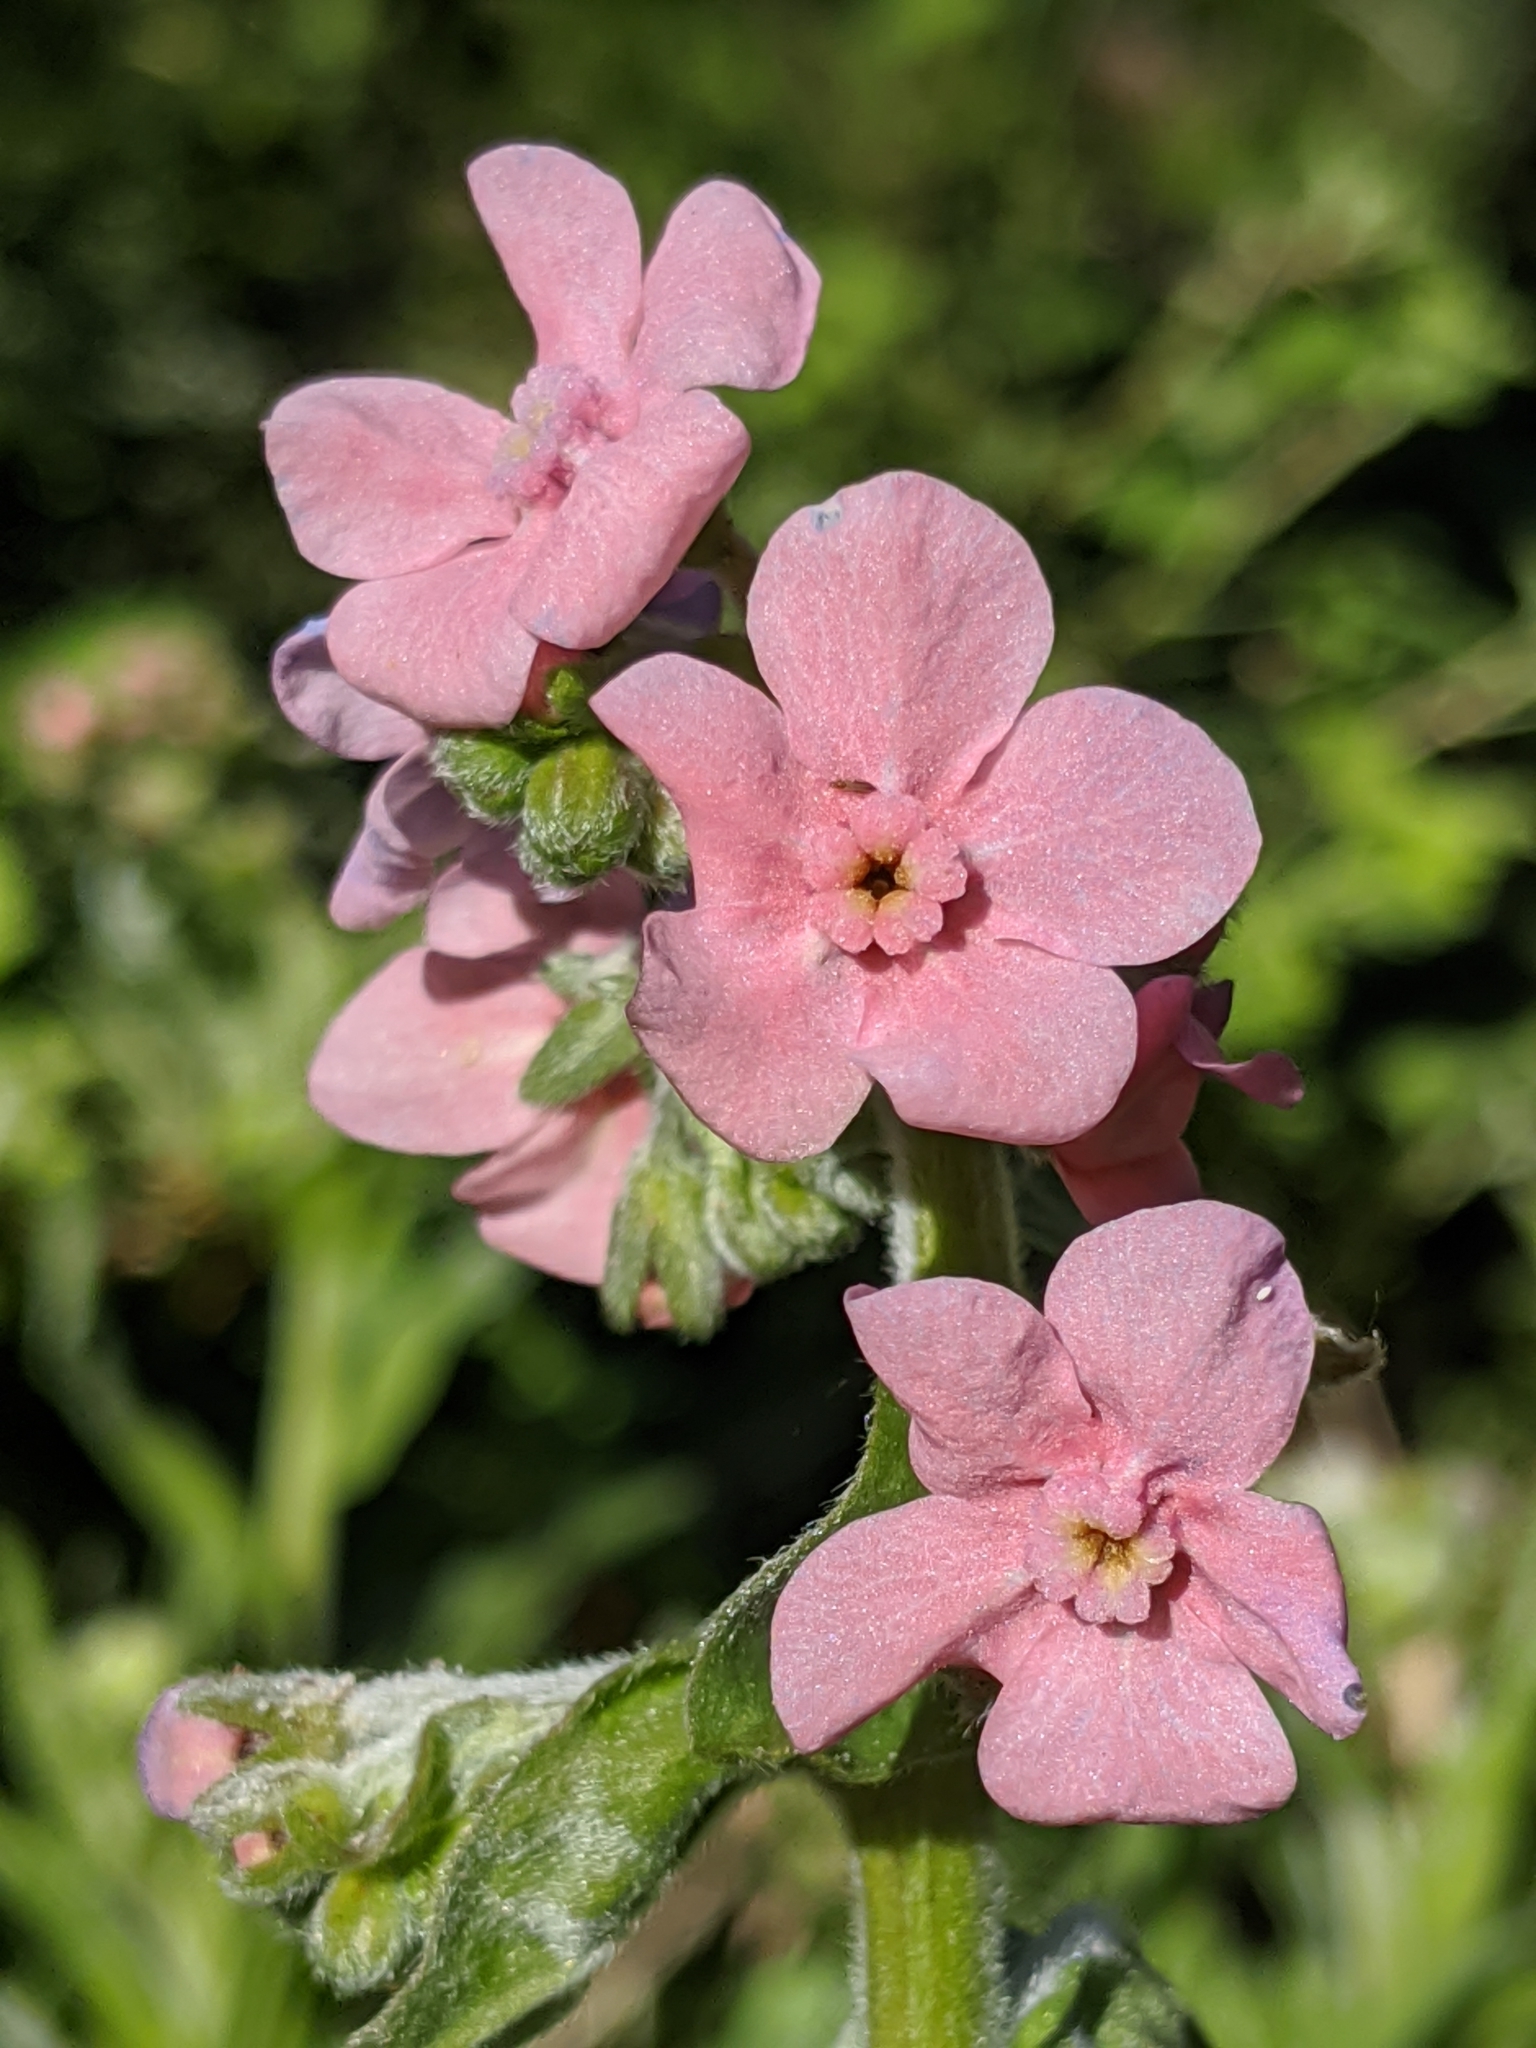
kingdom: Plantae
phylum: Tracheophyta
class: Magnoliopsida
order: Boraginales
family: Boraginaceae
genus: Hackelia
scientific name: Hackelia mundula
